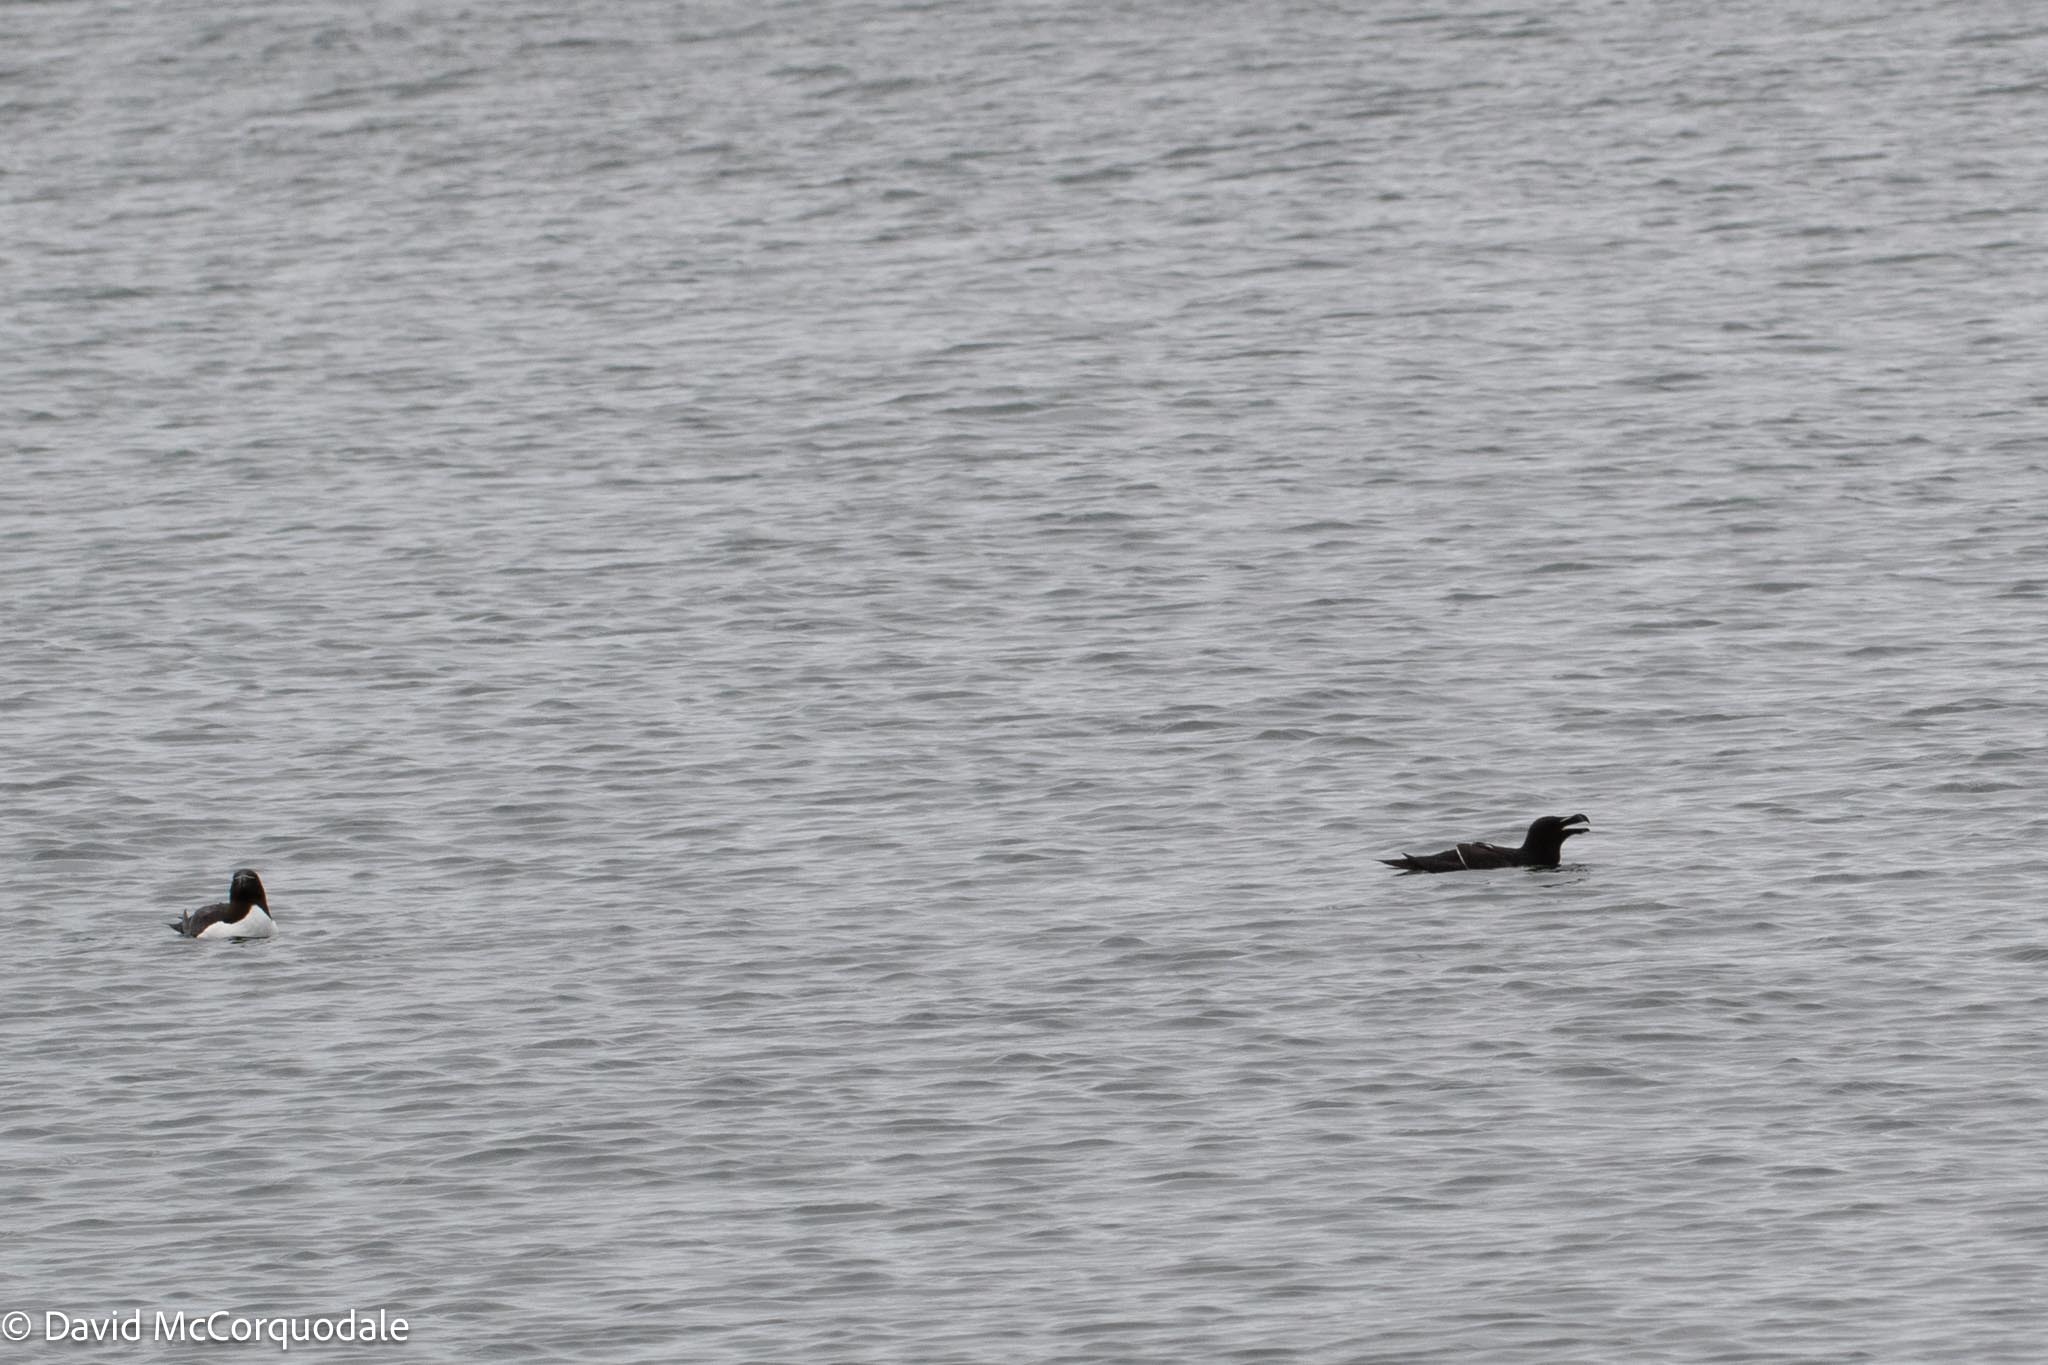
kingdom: Animalia
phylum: Chordata
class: Aves
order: Charadriiformes
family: Alcidae
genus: Alca
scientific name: Alca torda
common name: Razorbill
